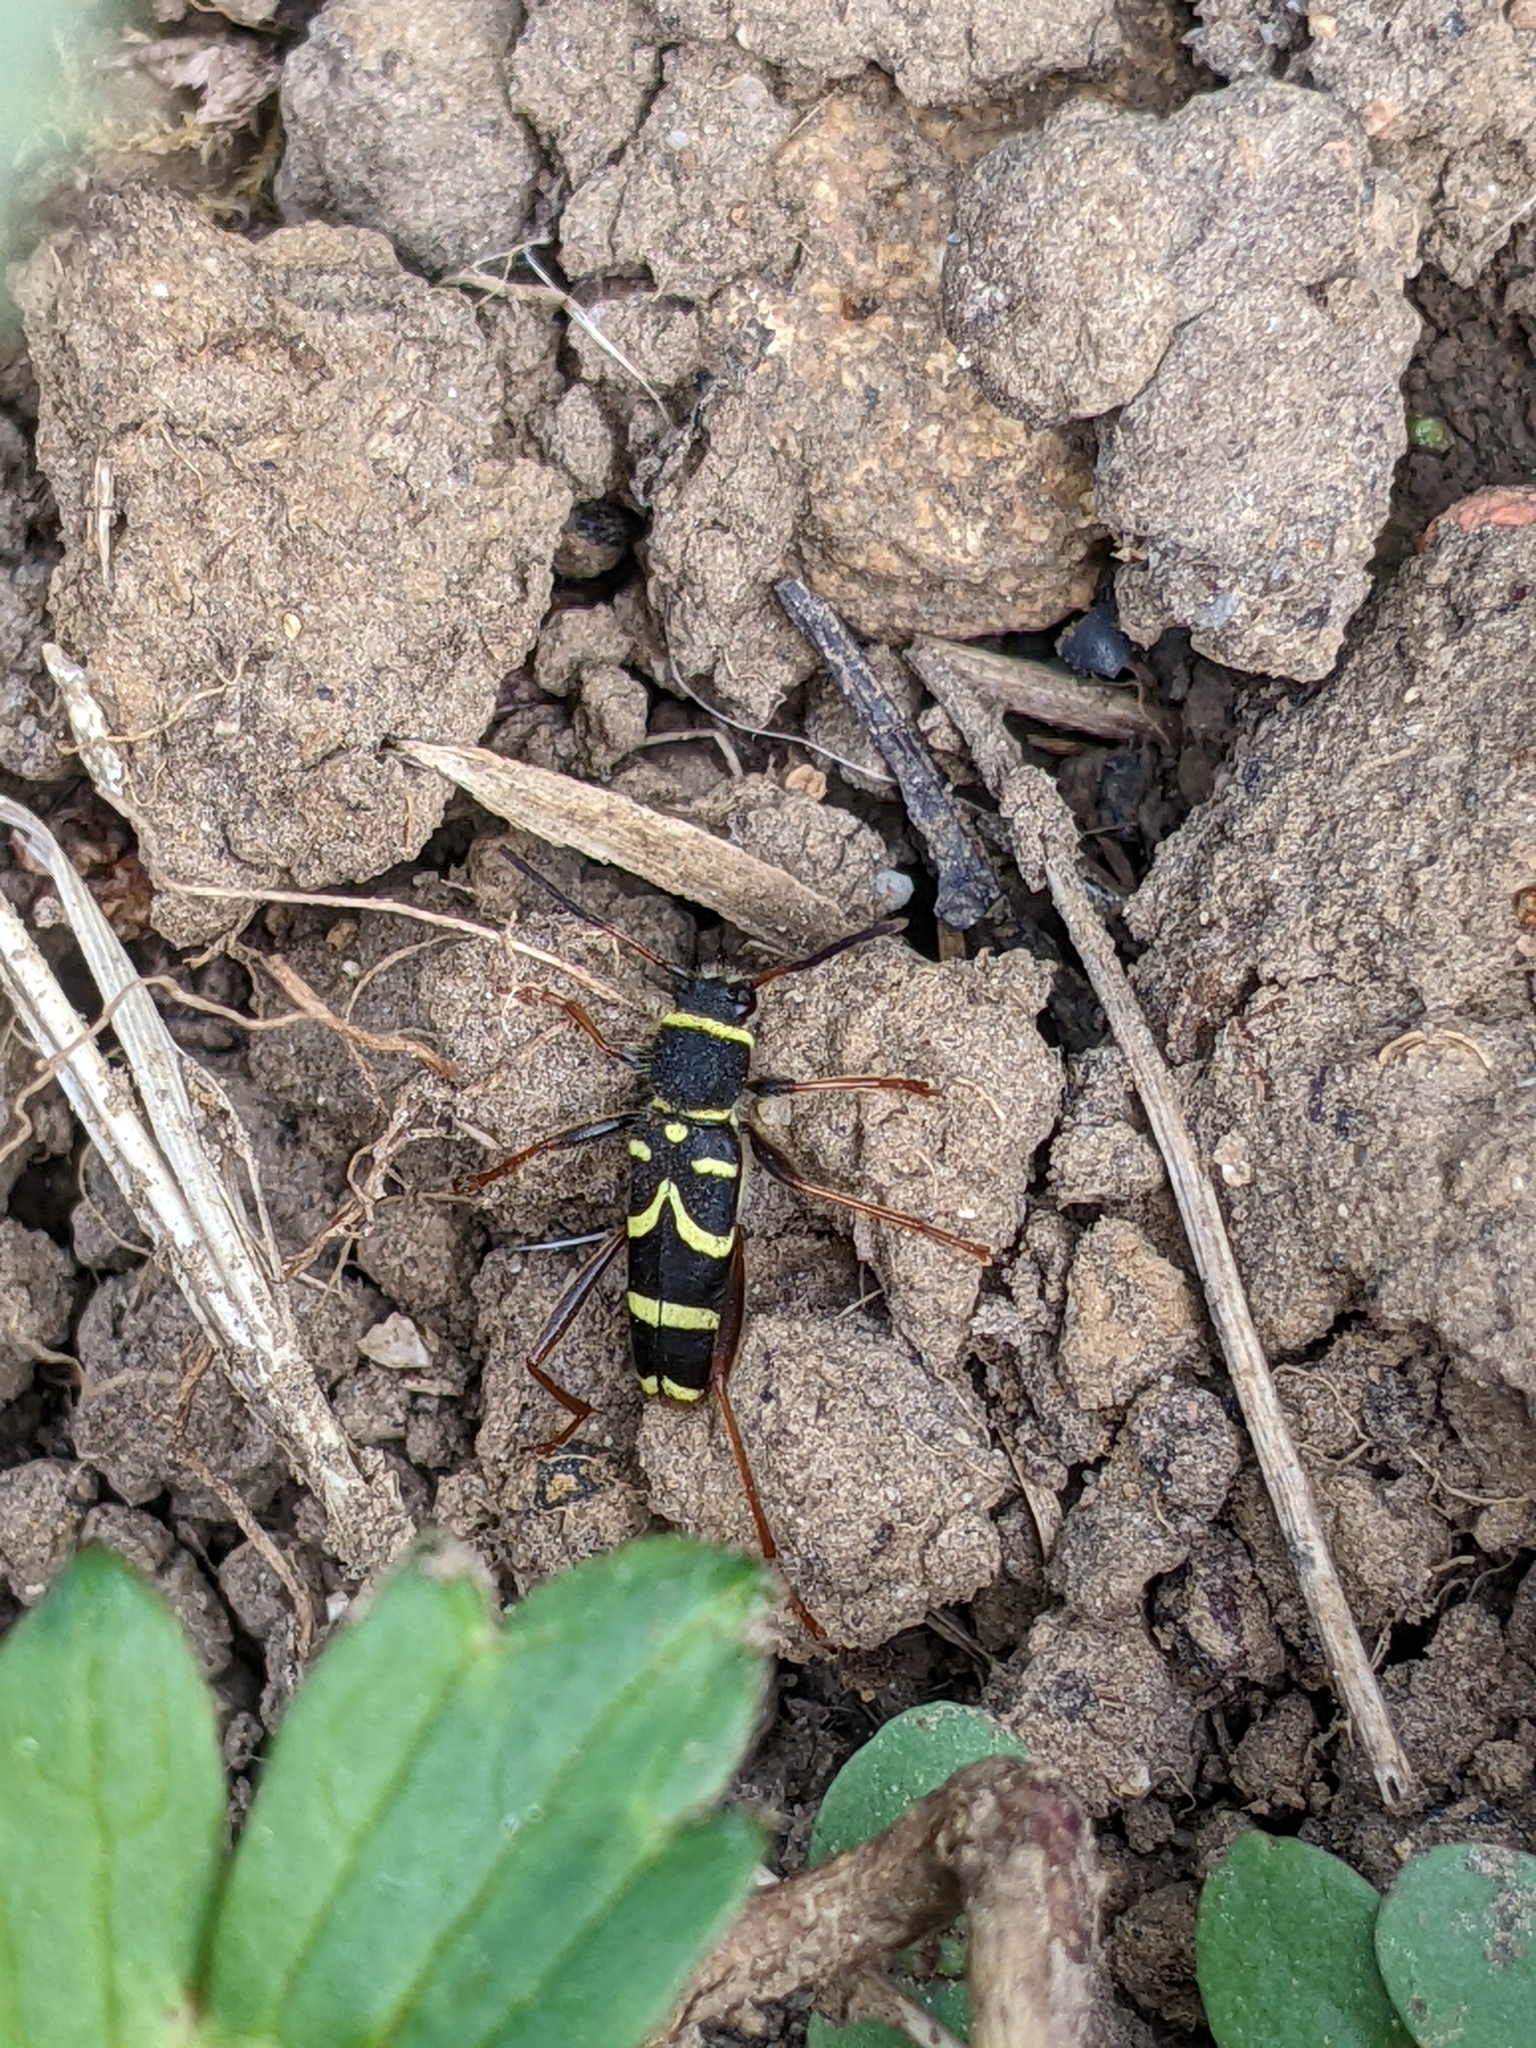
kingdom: Animalia
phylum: Arthropoda
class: Insecta
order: Coleoptera
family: Cerambycidae
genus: Clytus
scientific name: Clytus arietis
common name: Wasp beetle
